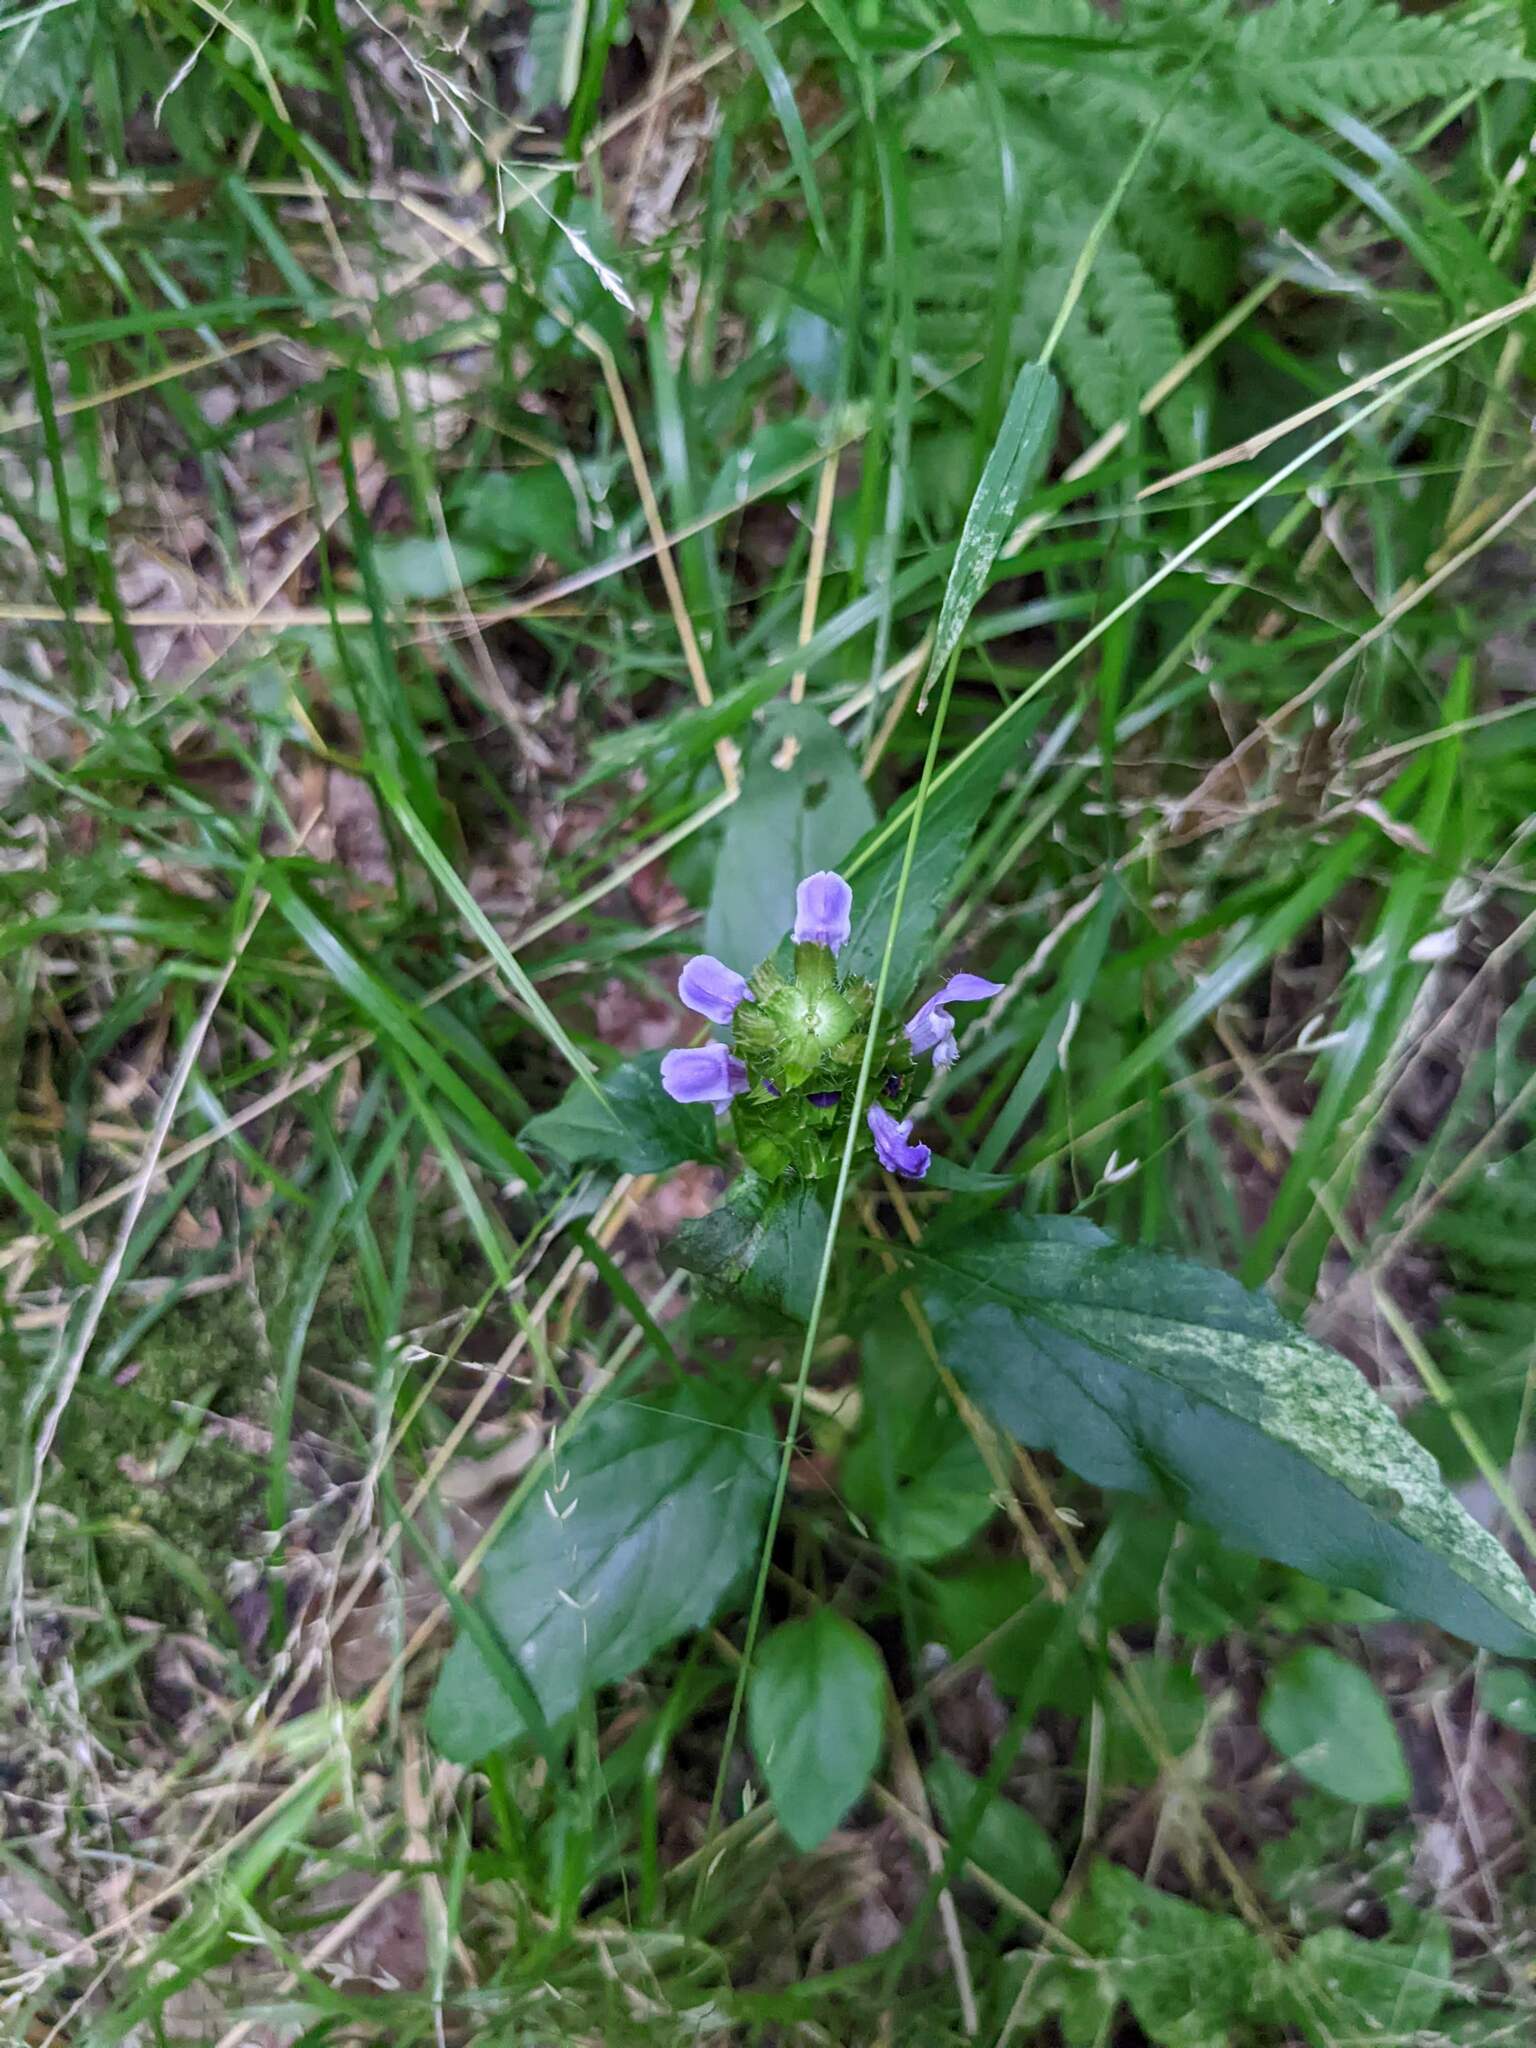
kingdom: Plantae
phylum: Tracheophyta
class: Magnoliopsida
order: Lamiales
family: Lamiaceae
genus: Prunella
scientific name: Prunella vulgaris
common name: Heal-all
